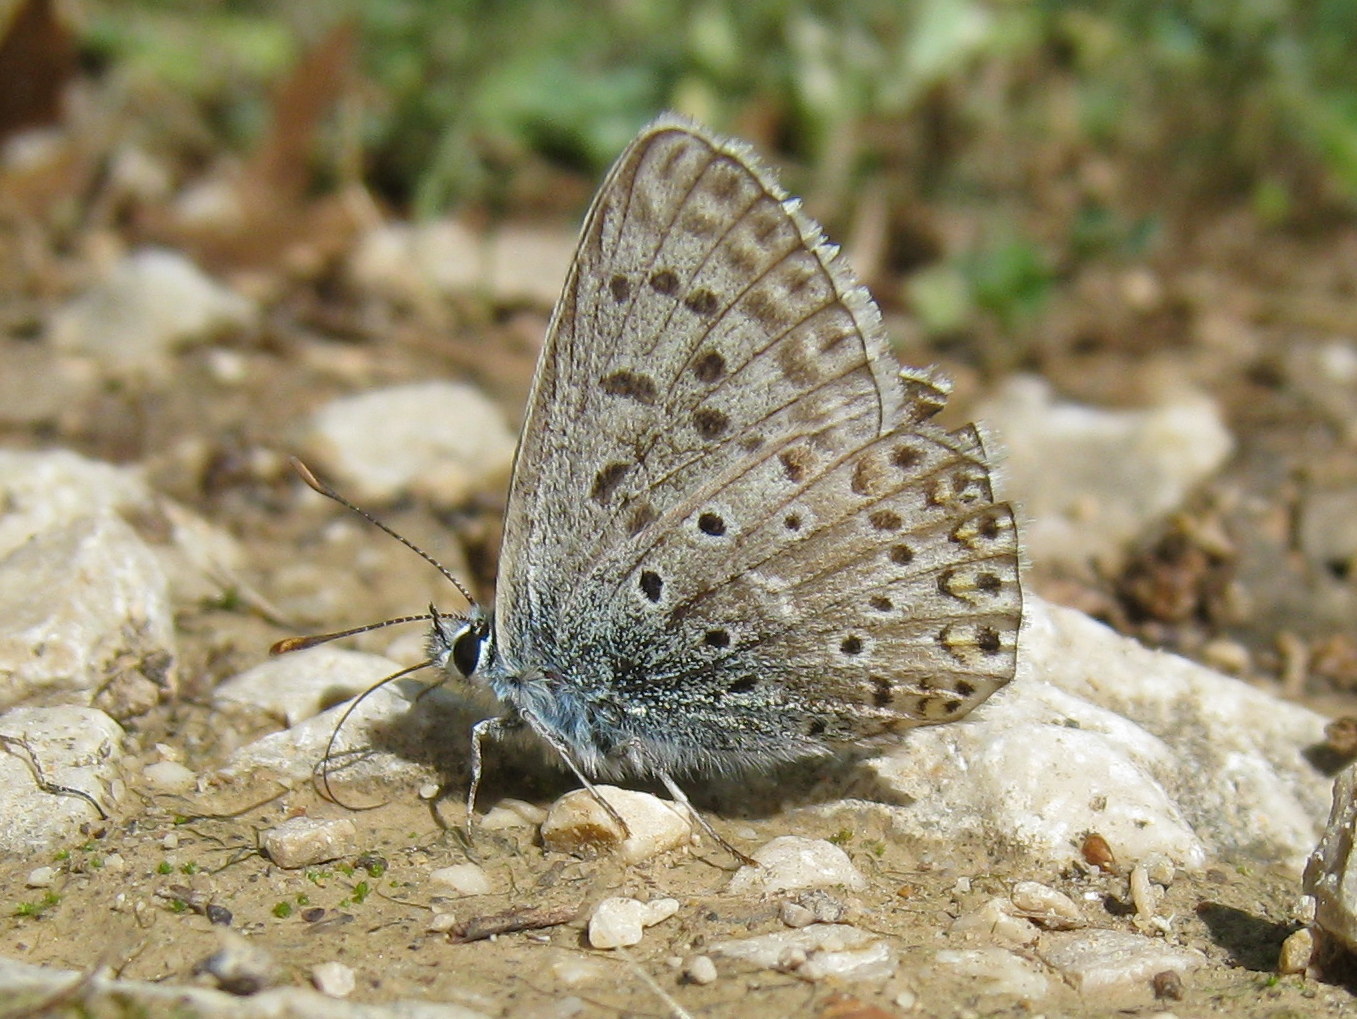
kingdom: Animalia
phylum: Arthropoda
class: Insecta
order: Lepidoptera
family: Lycaenidae
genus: Lysandra
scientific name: Lysandra hispana
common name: Provence chalkhill blue
